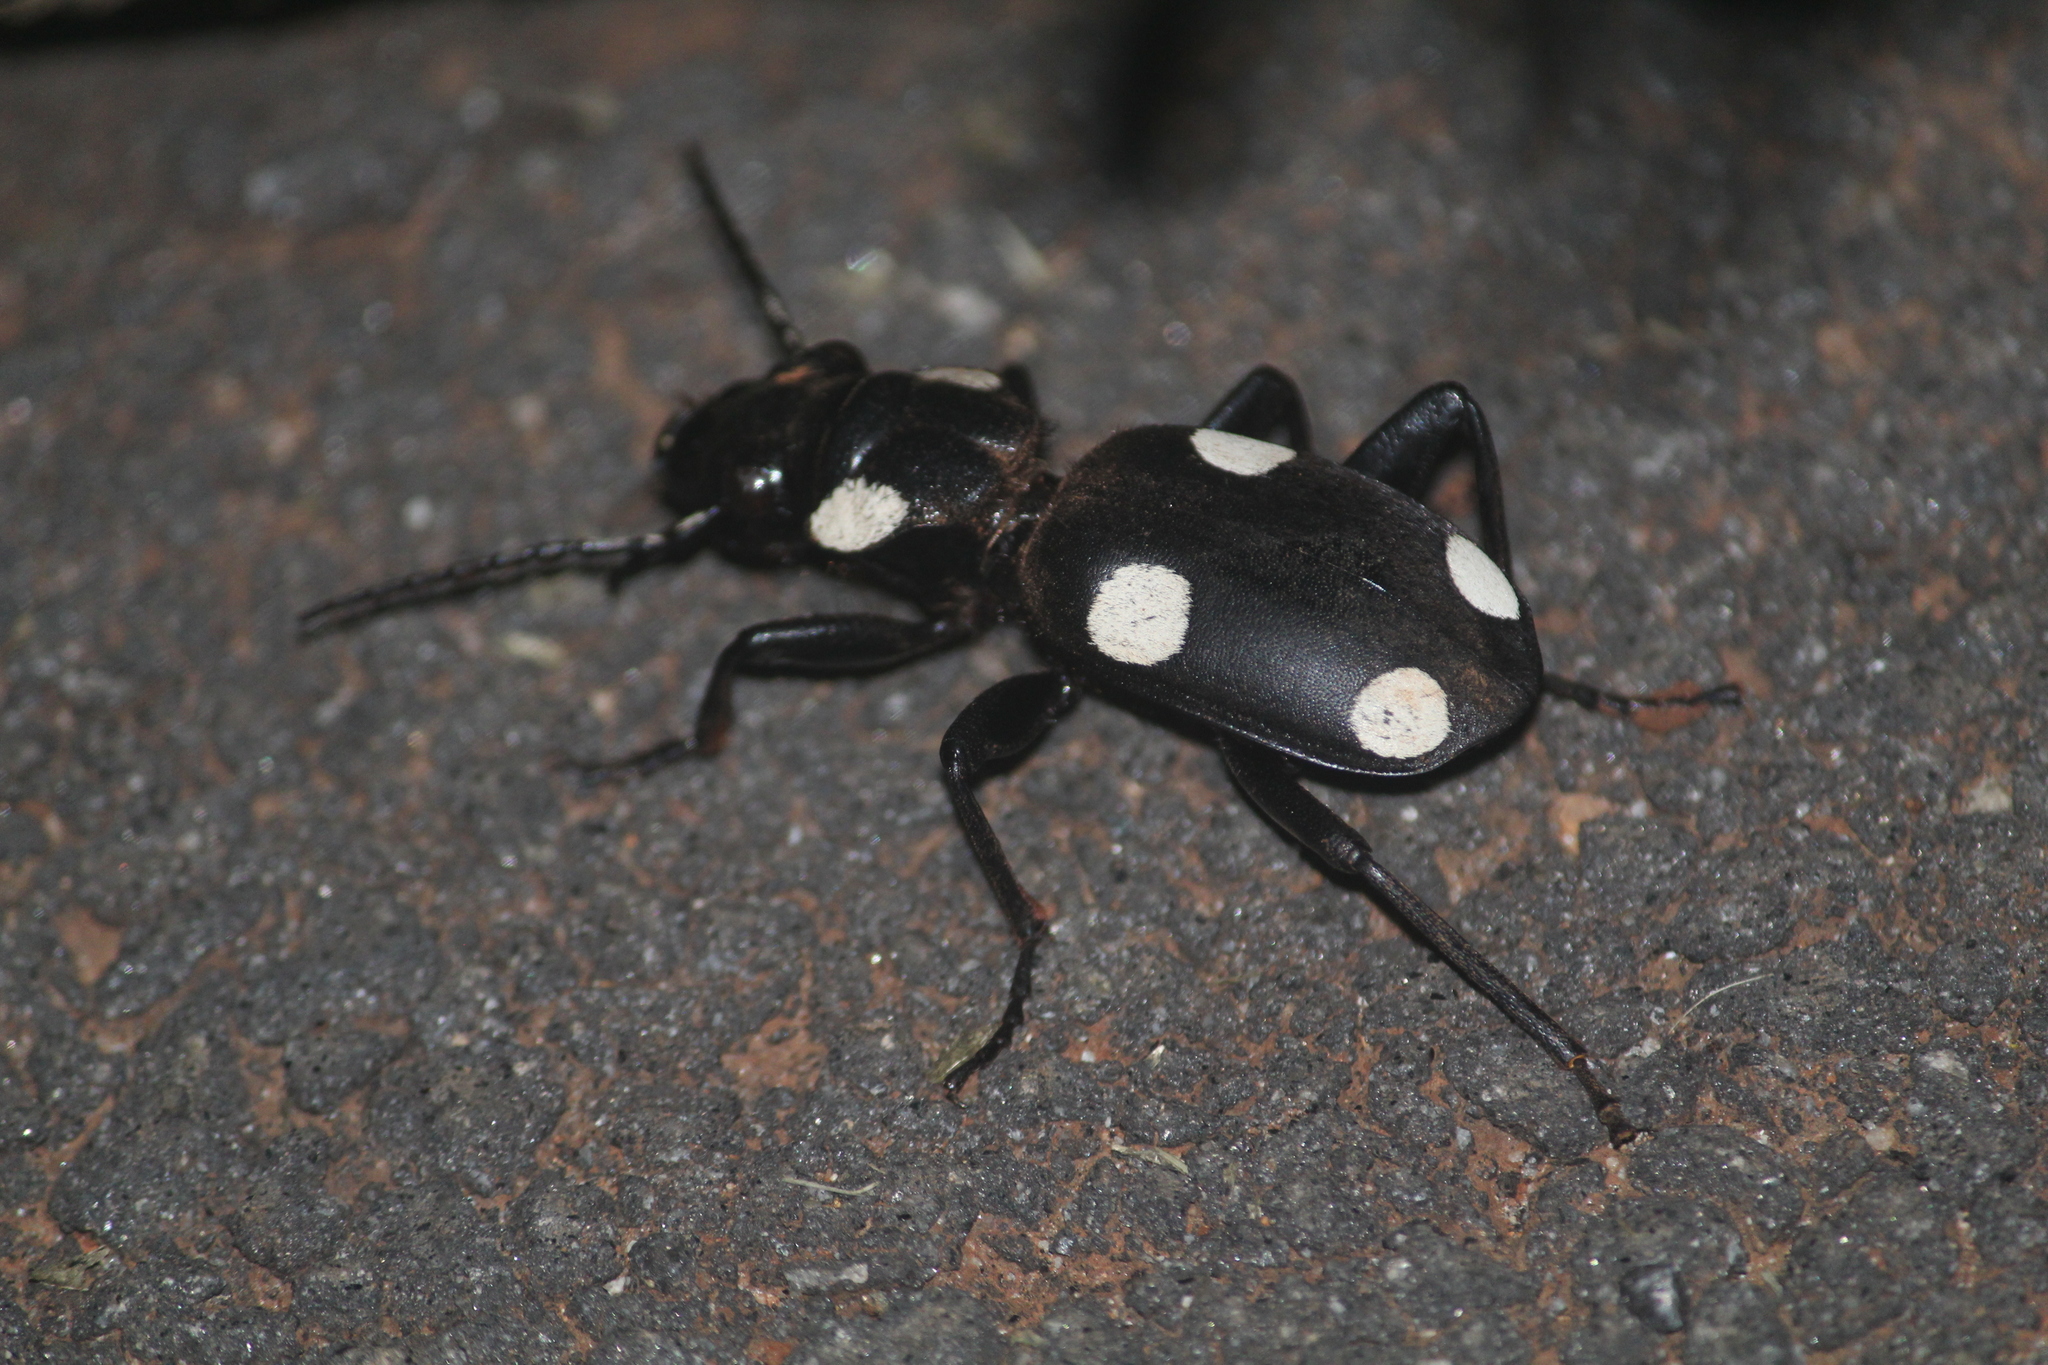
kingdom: Animalia
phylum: Arthropoda
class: Insecta
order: Coleoptera
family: Carabidae
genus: Anthia
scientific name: Anthia sexguttata
